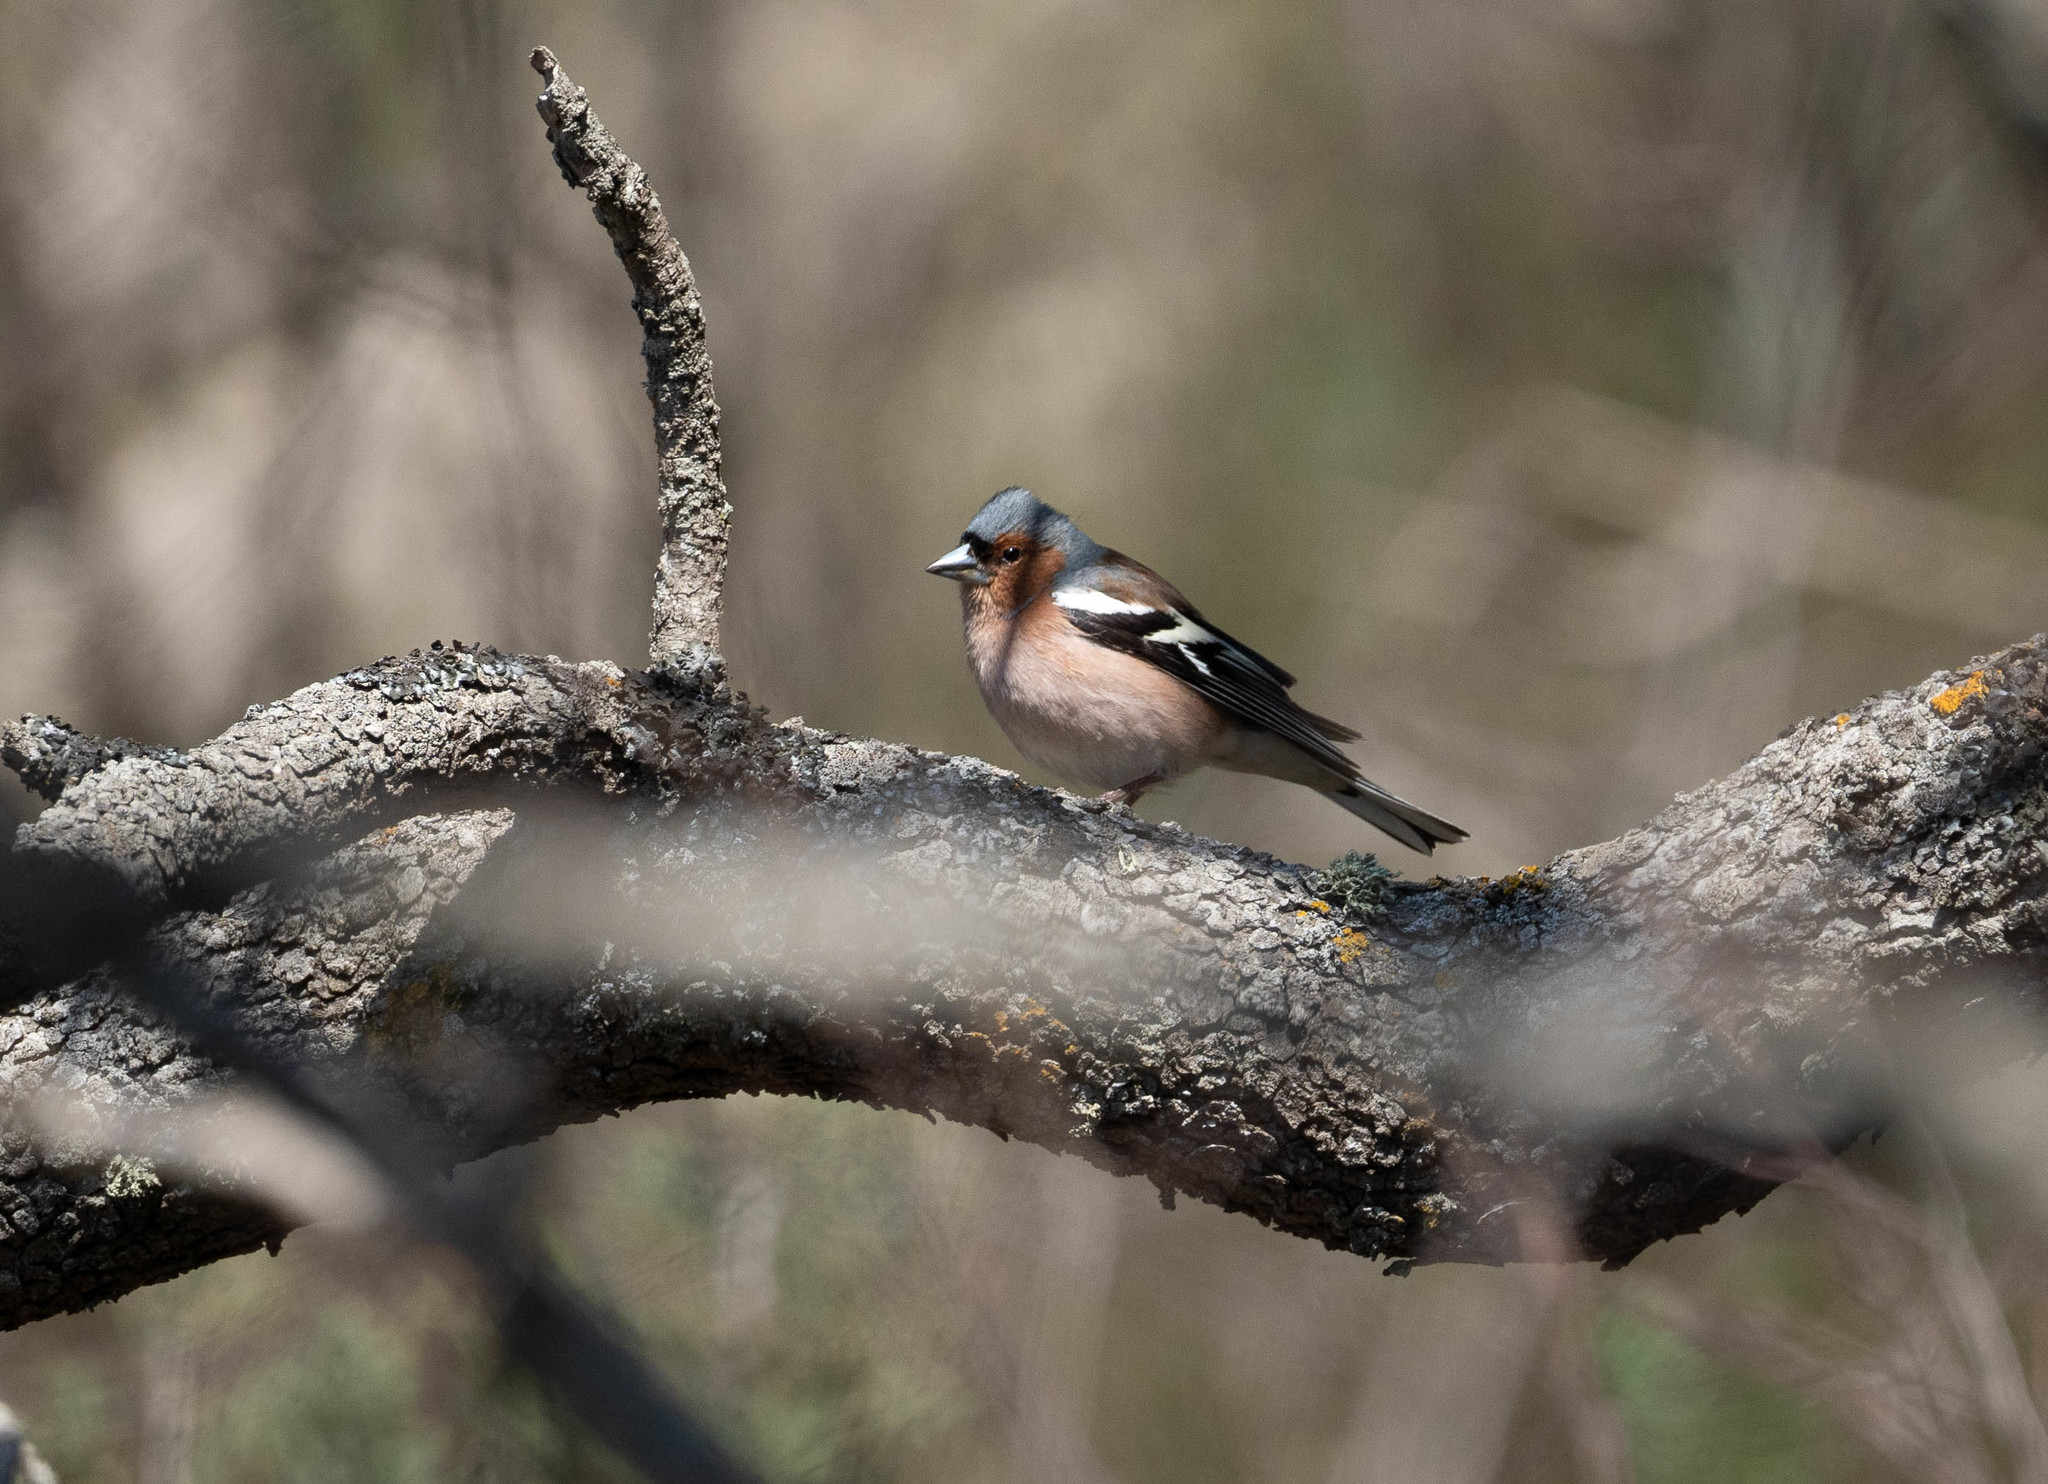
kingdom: Animalia
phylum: Chordata
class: Aves
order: Passeriformes
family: Fringillidae
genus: Fringilla
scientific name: Fringilla coelebs
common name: Common chaffinch
